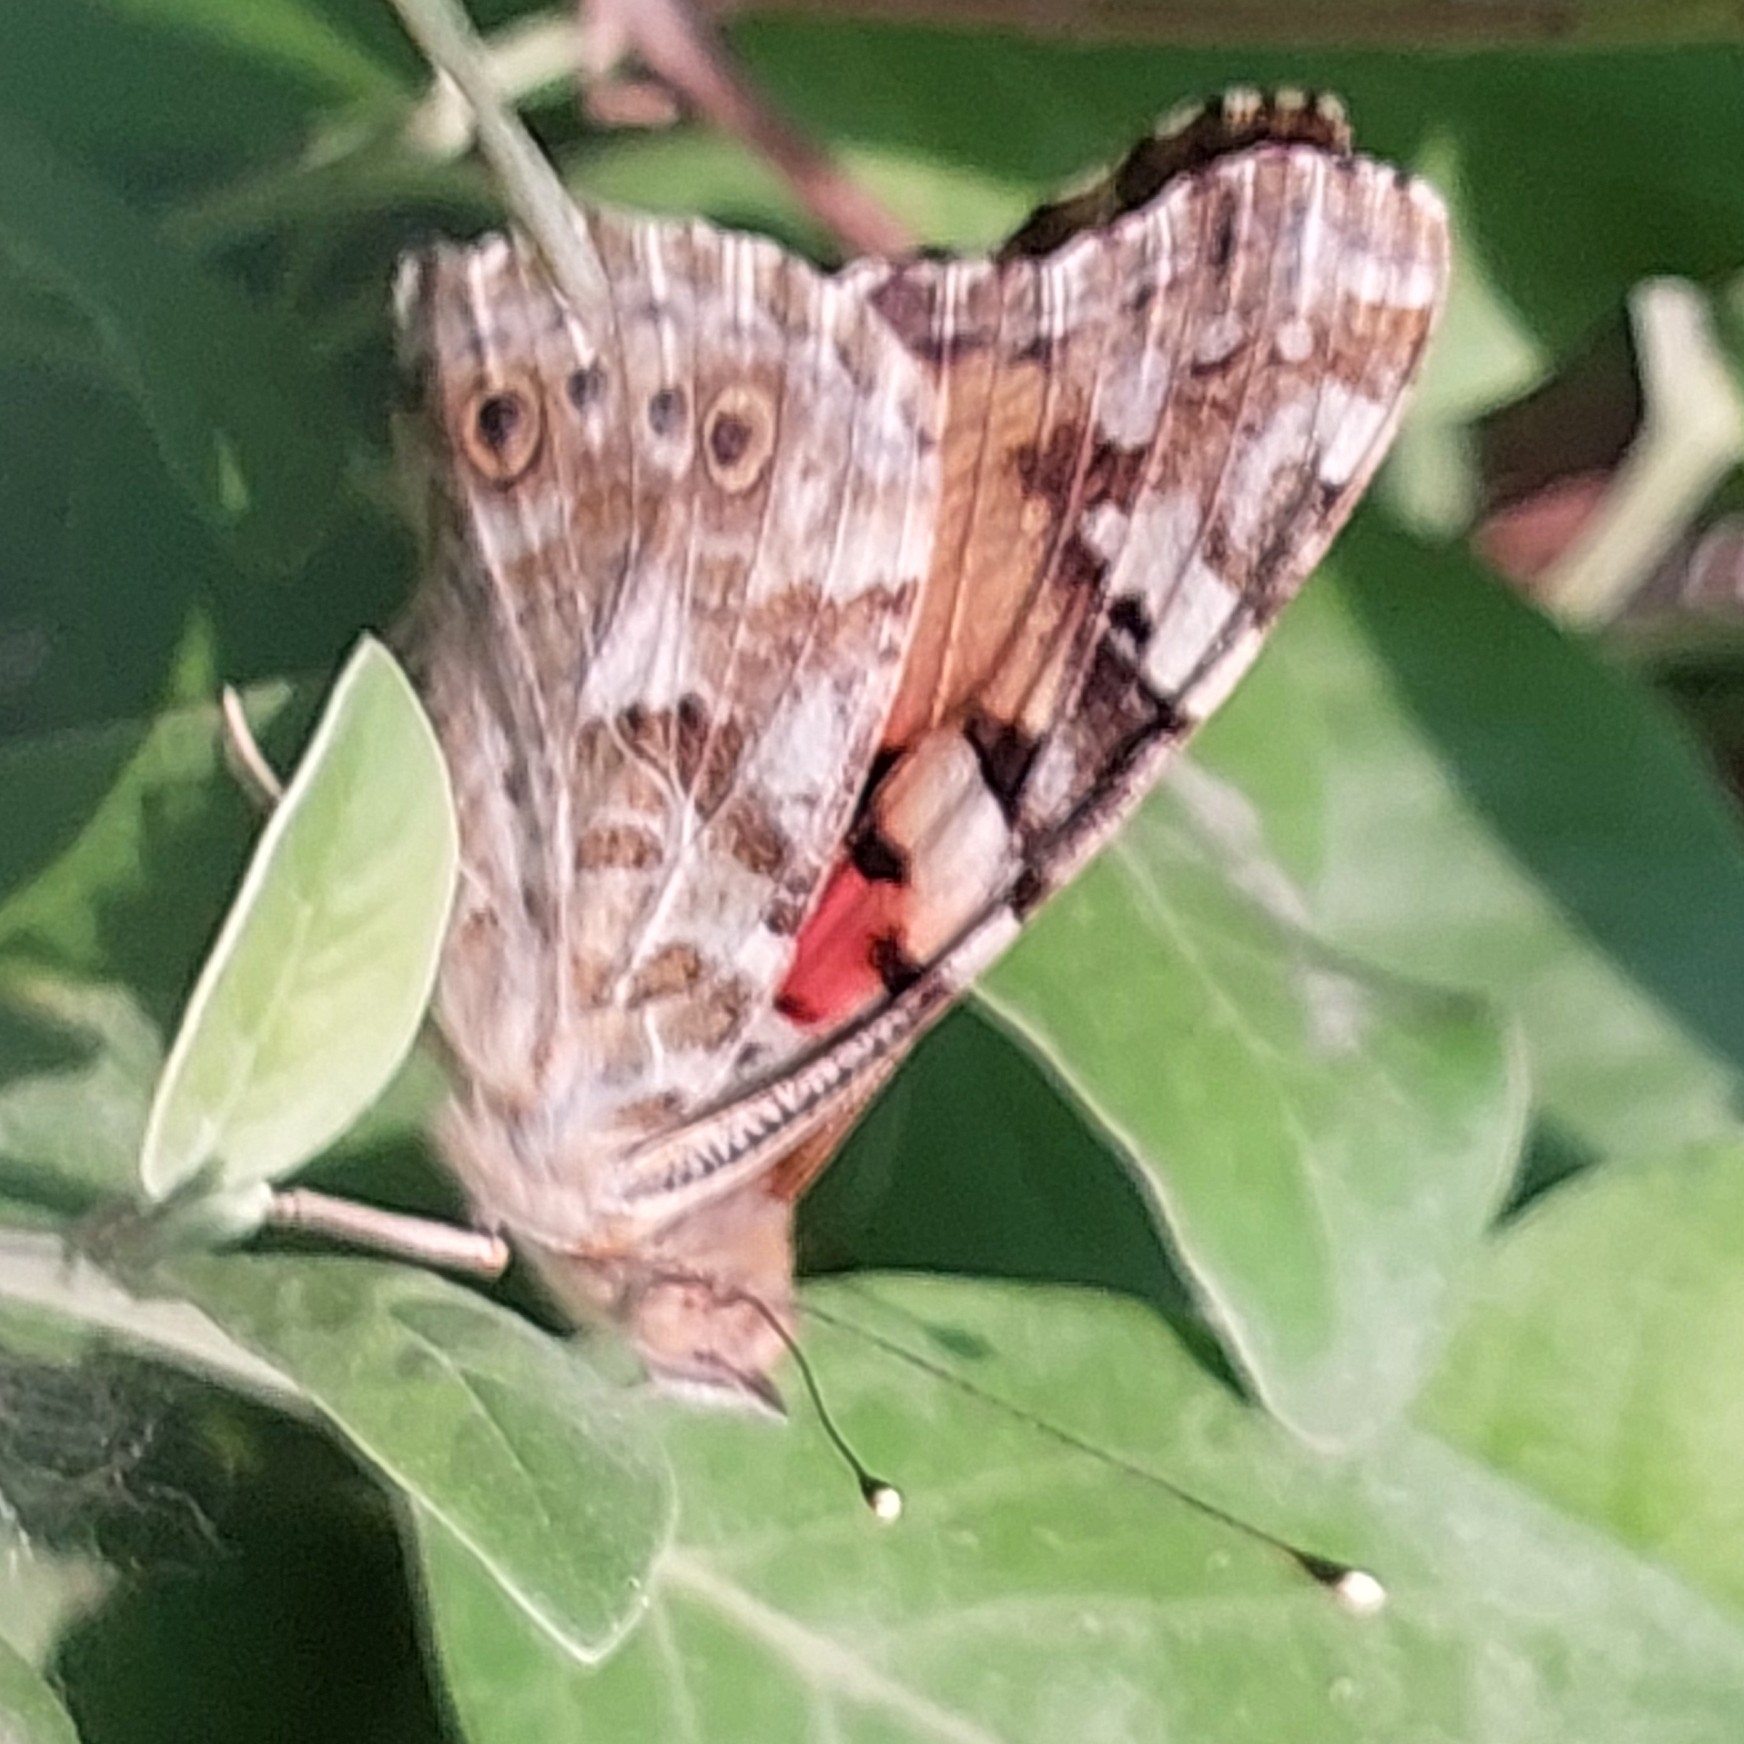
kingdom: Animalia
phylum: Arthropoda
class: Insecta
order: Lepidoptera
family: Nymphalidae
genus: Vanessa
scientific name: Vanessa cardui
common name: Painted lady
